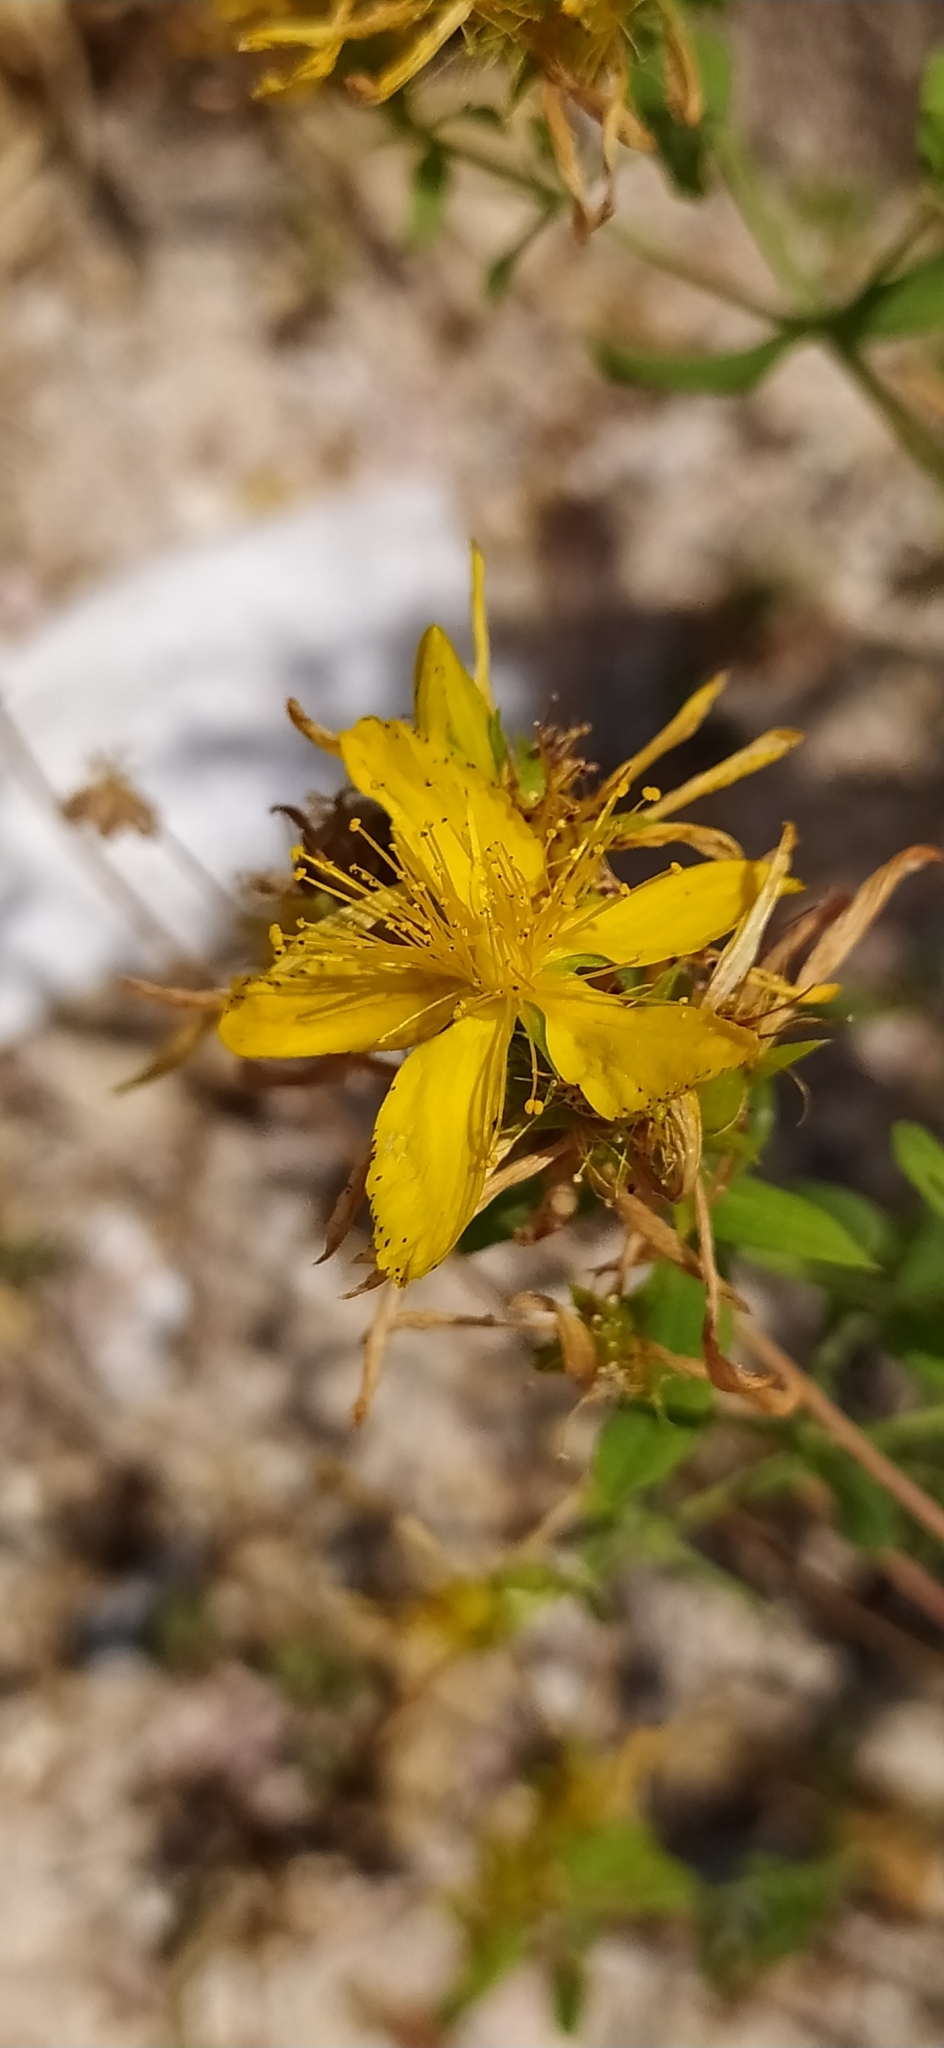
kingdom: Plantae
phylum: Tracheophyta
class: Magnoliopsida
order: Malpighiales
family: Hypericaceae
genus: Hypericum
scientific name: Hypericum perforatum
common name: Common st. johnswort
